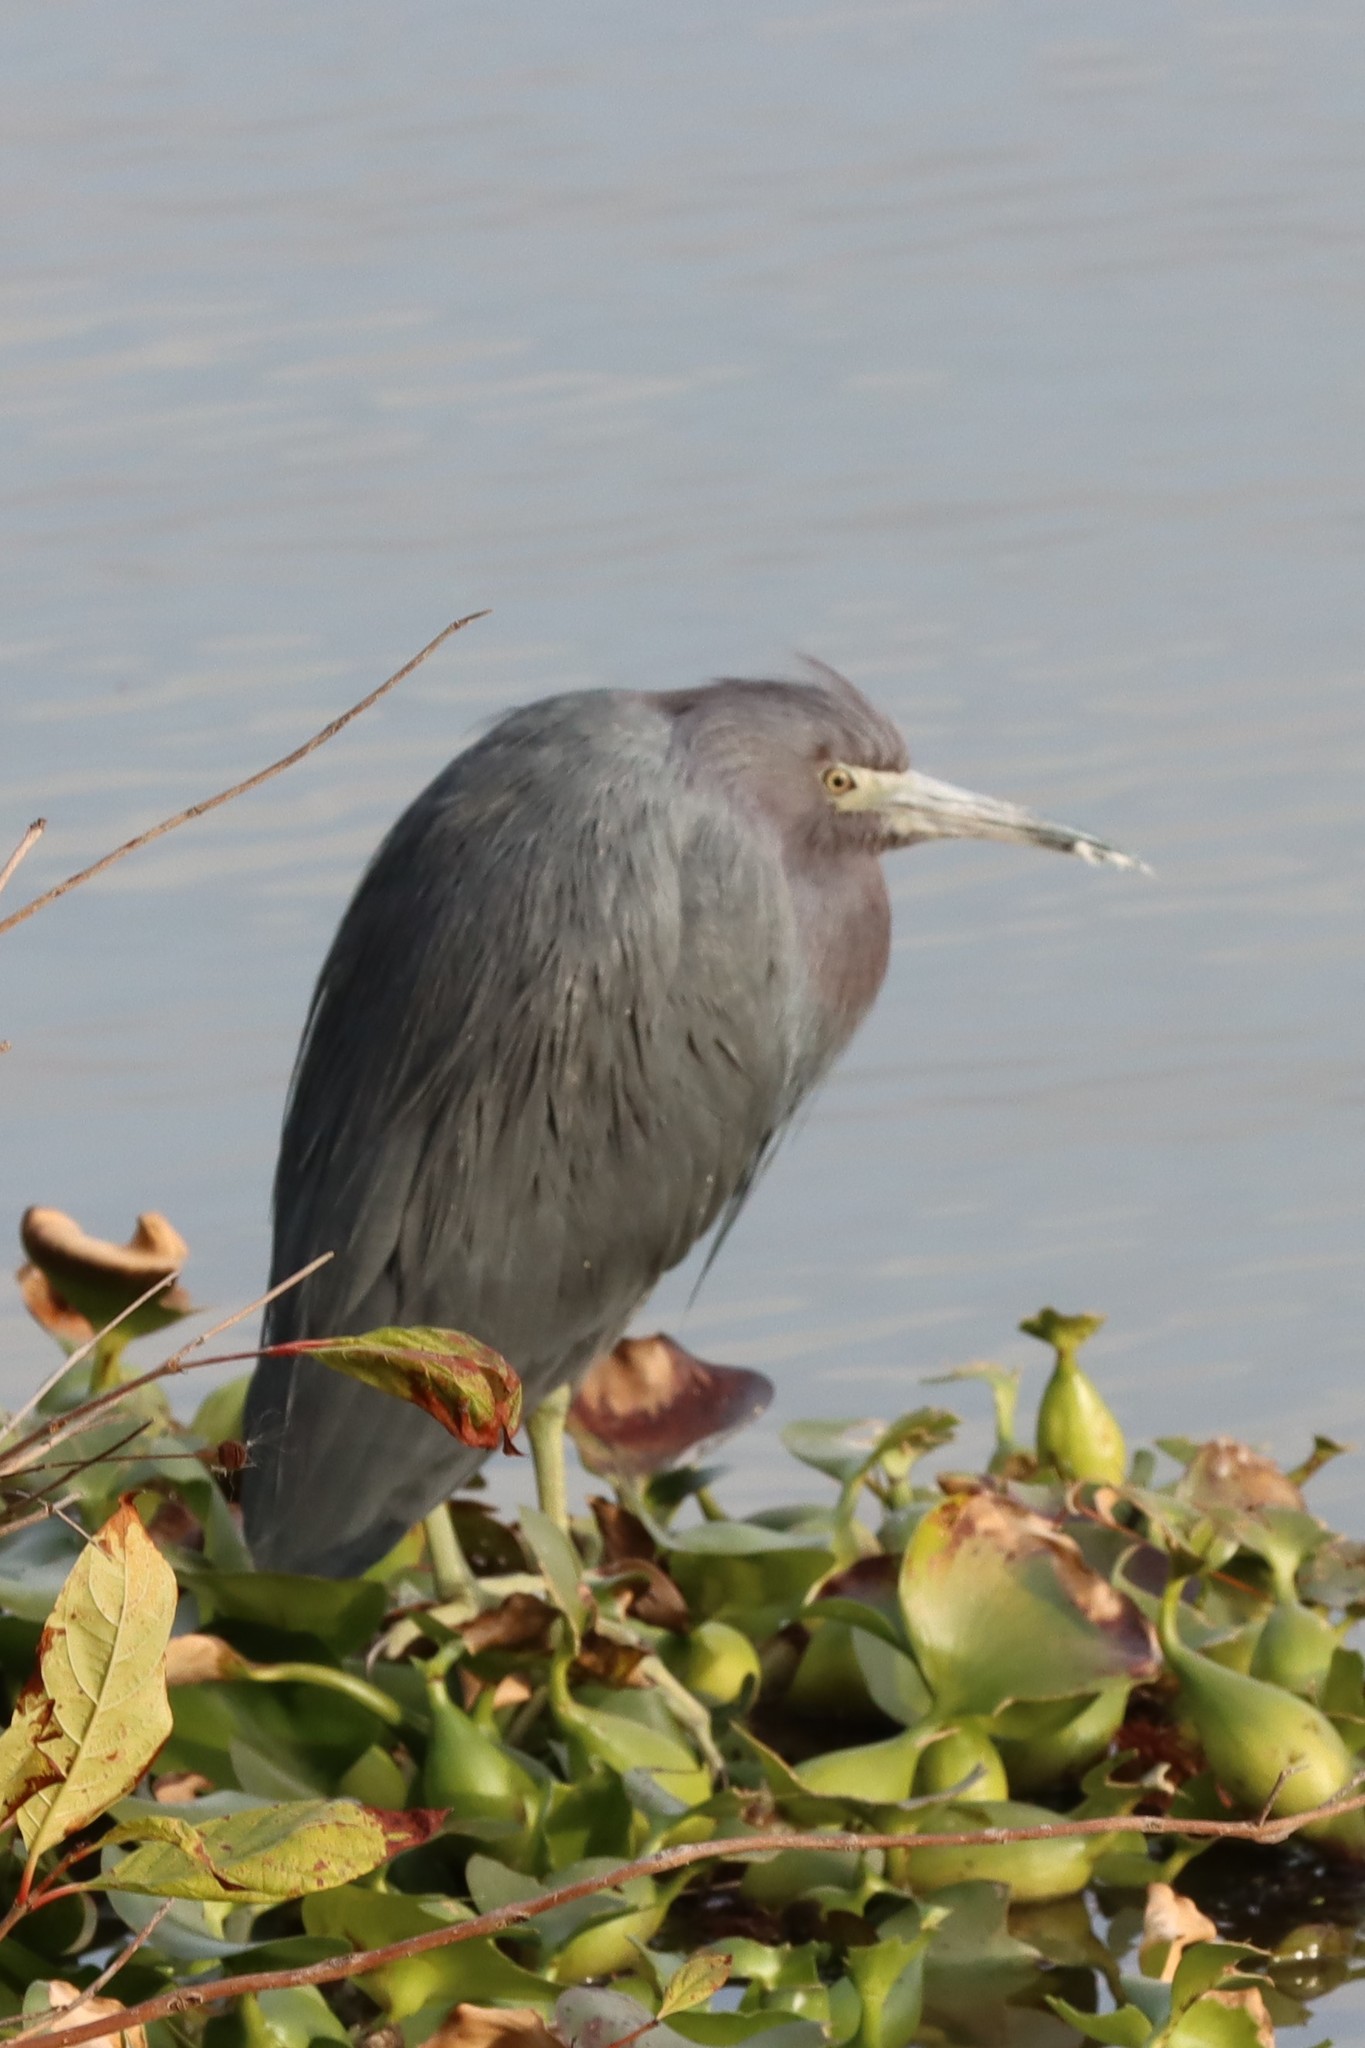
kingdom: Animalia
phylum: Chordata
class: Aves
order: Pelecaniformes
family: Ardeidae
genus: Egretta
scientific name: Egretta caerulea
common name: Little blue heron
